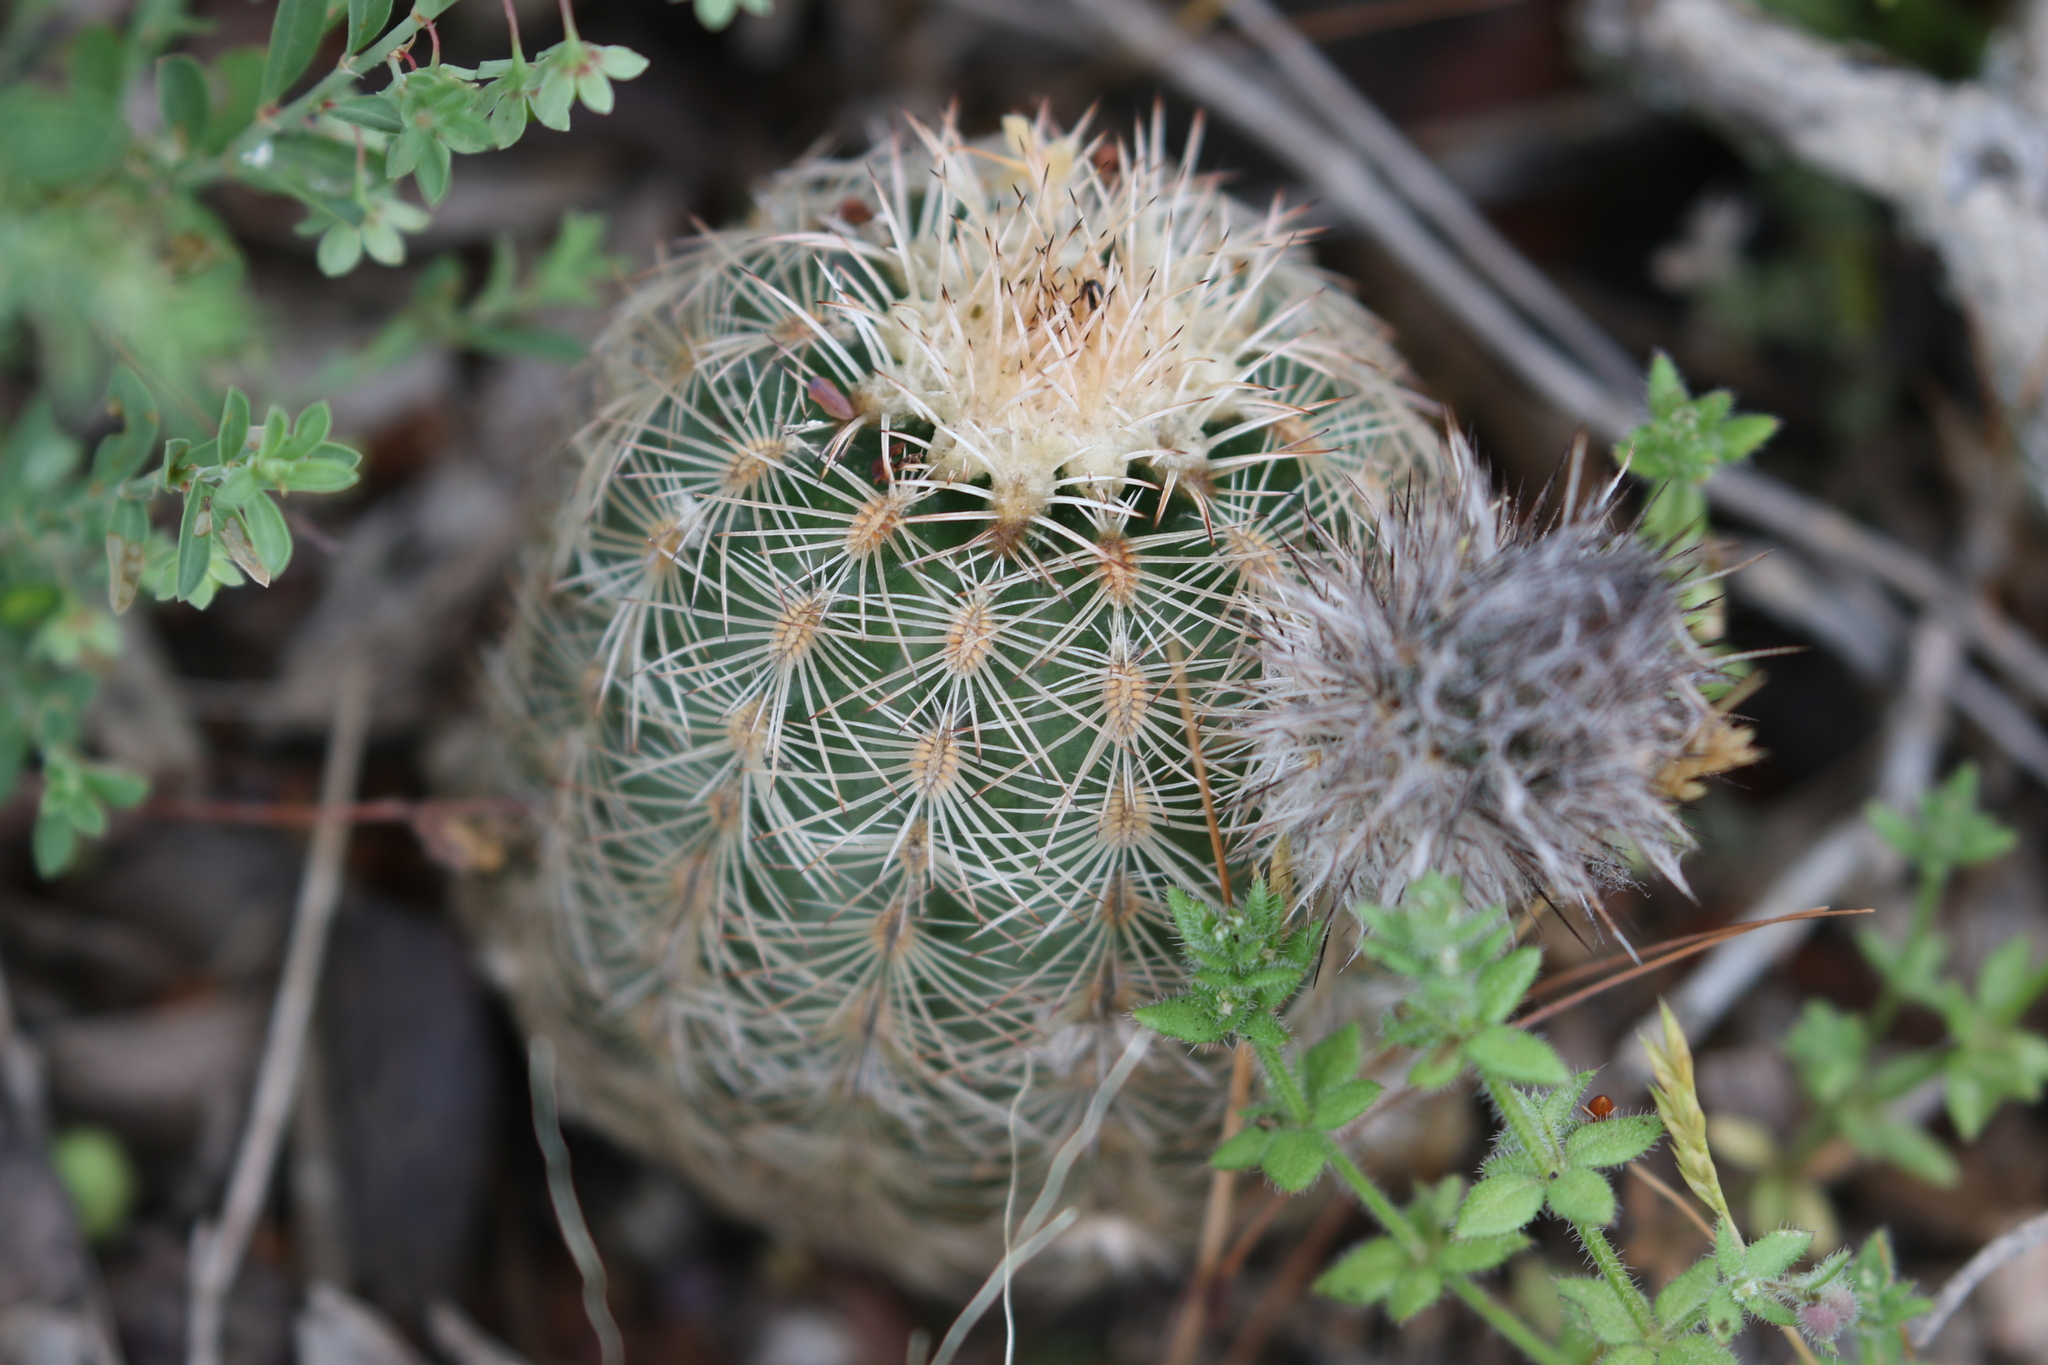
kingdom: Plantae
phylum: Tracheophyta
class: Magnoliopsida
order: Caryophyllales
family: Cactaceae
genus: Echinocereus
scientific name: Echinocereus reichenbachii
